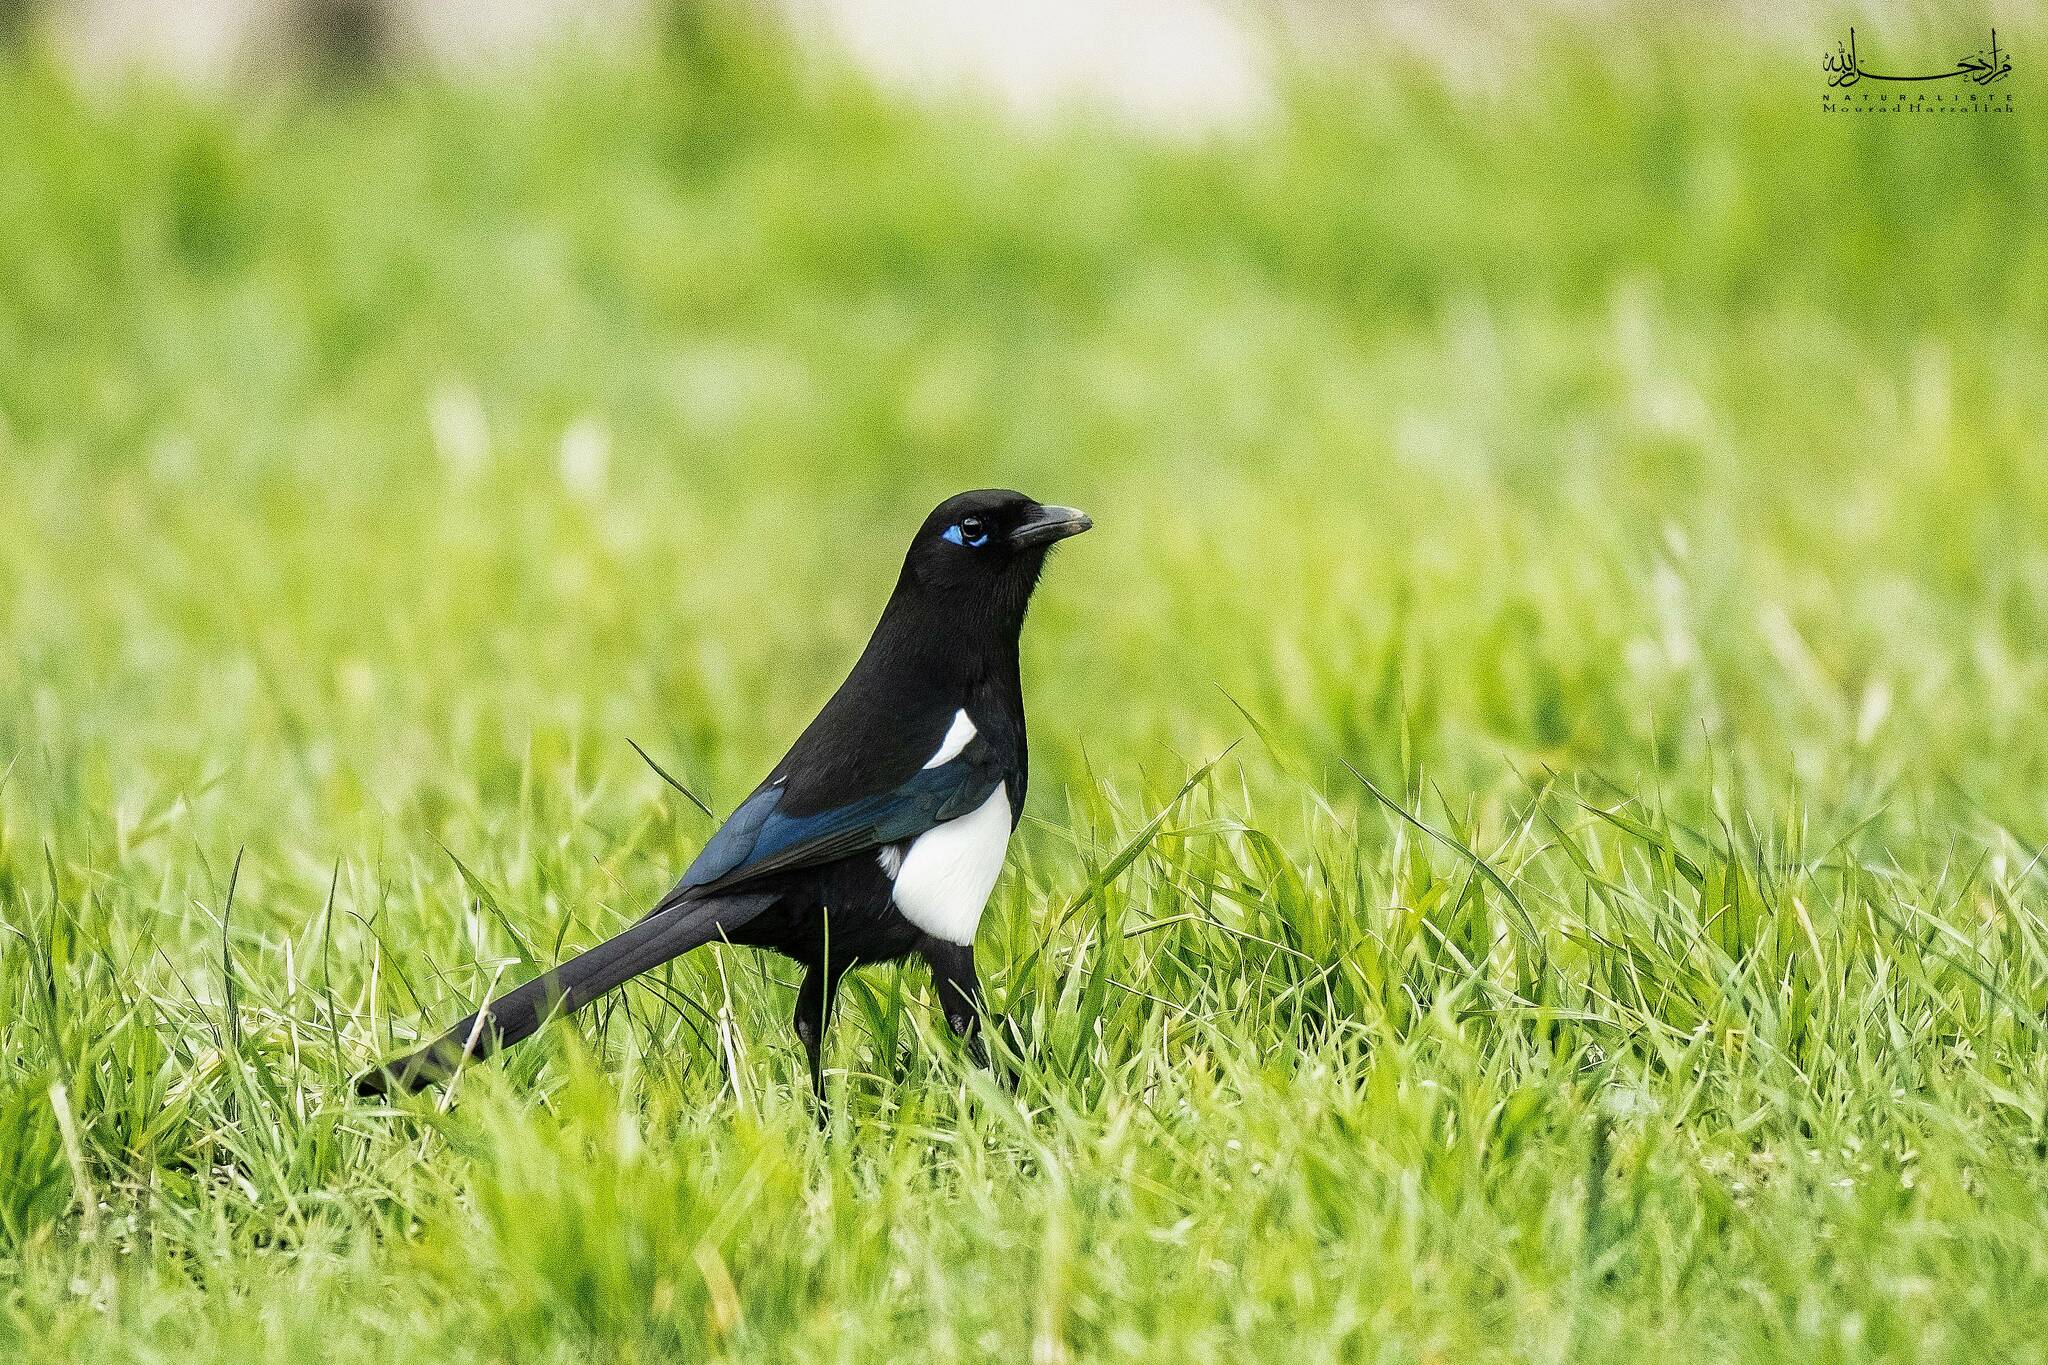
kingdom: Animalia
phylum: Chordata
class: Aves
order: Passeriformes
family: Corvidae
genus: Pica
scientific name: Pica mauritanica
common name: Maghreb magpie
